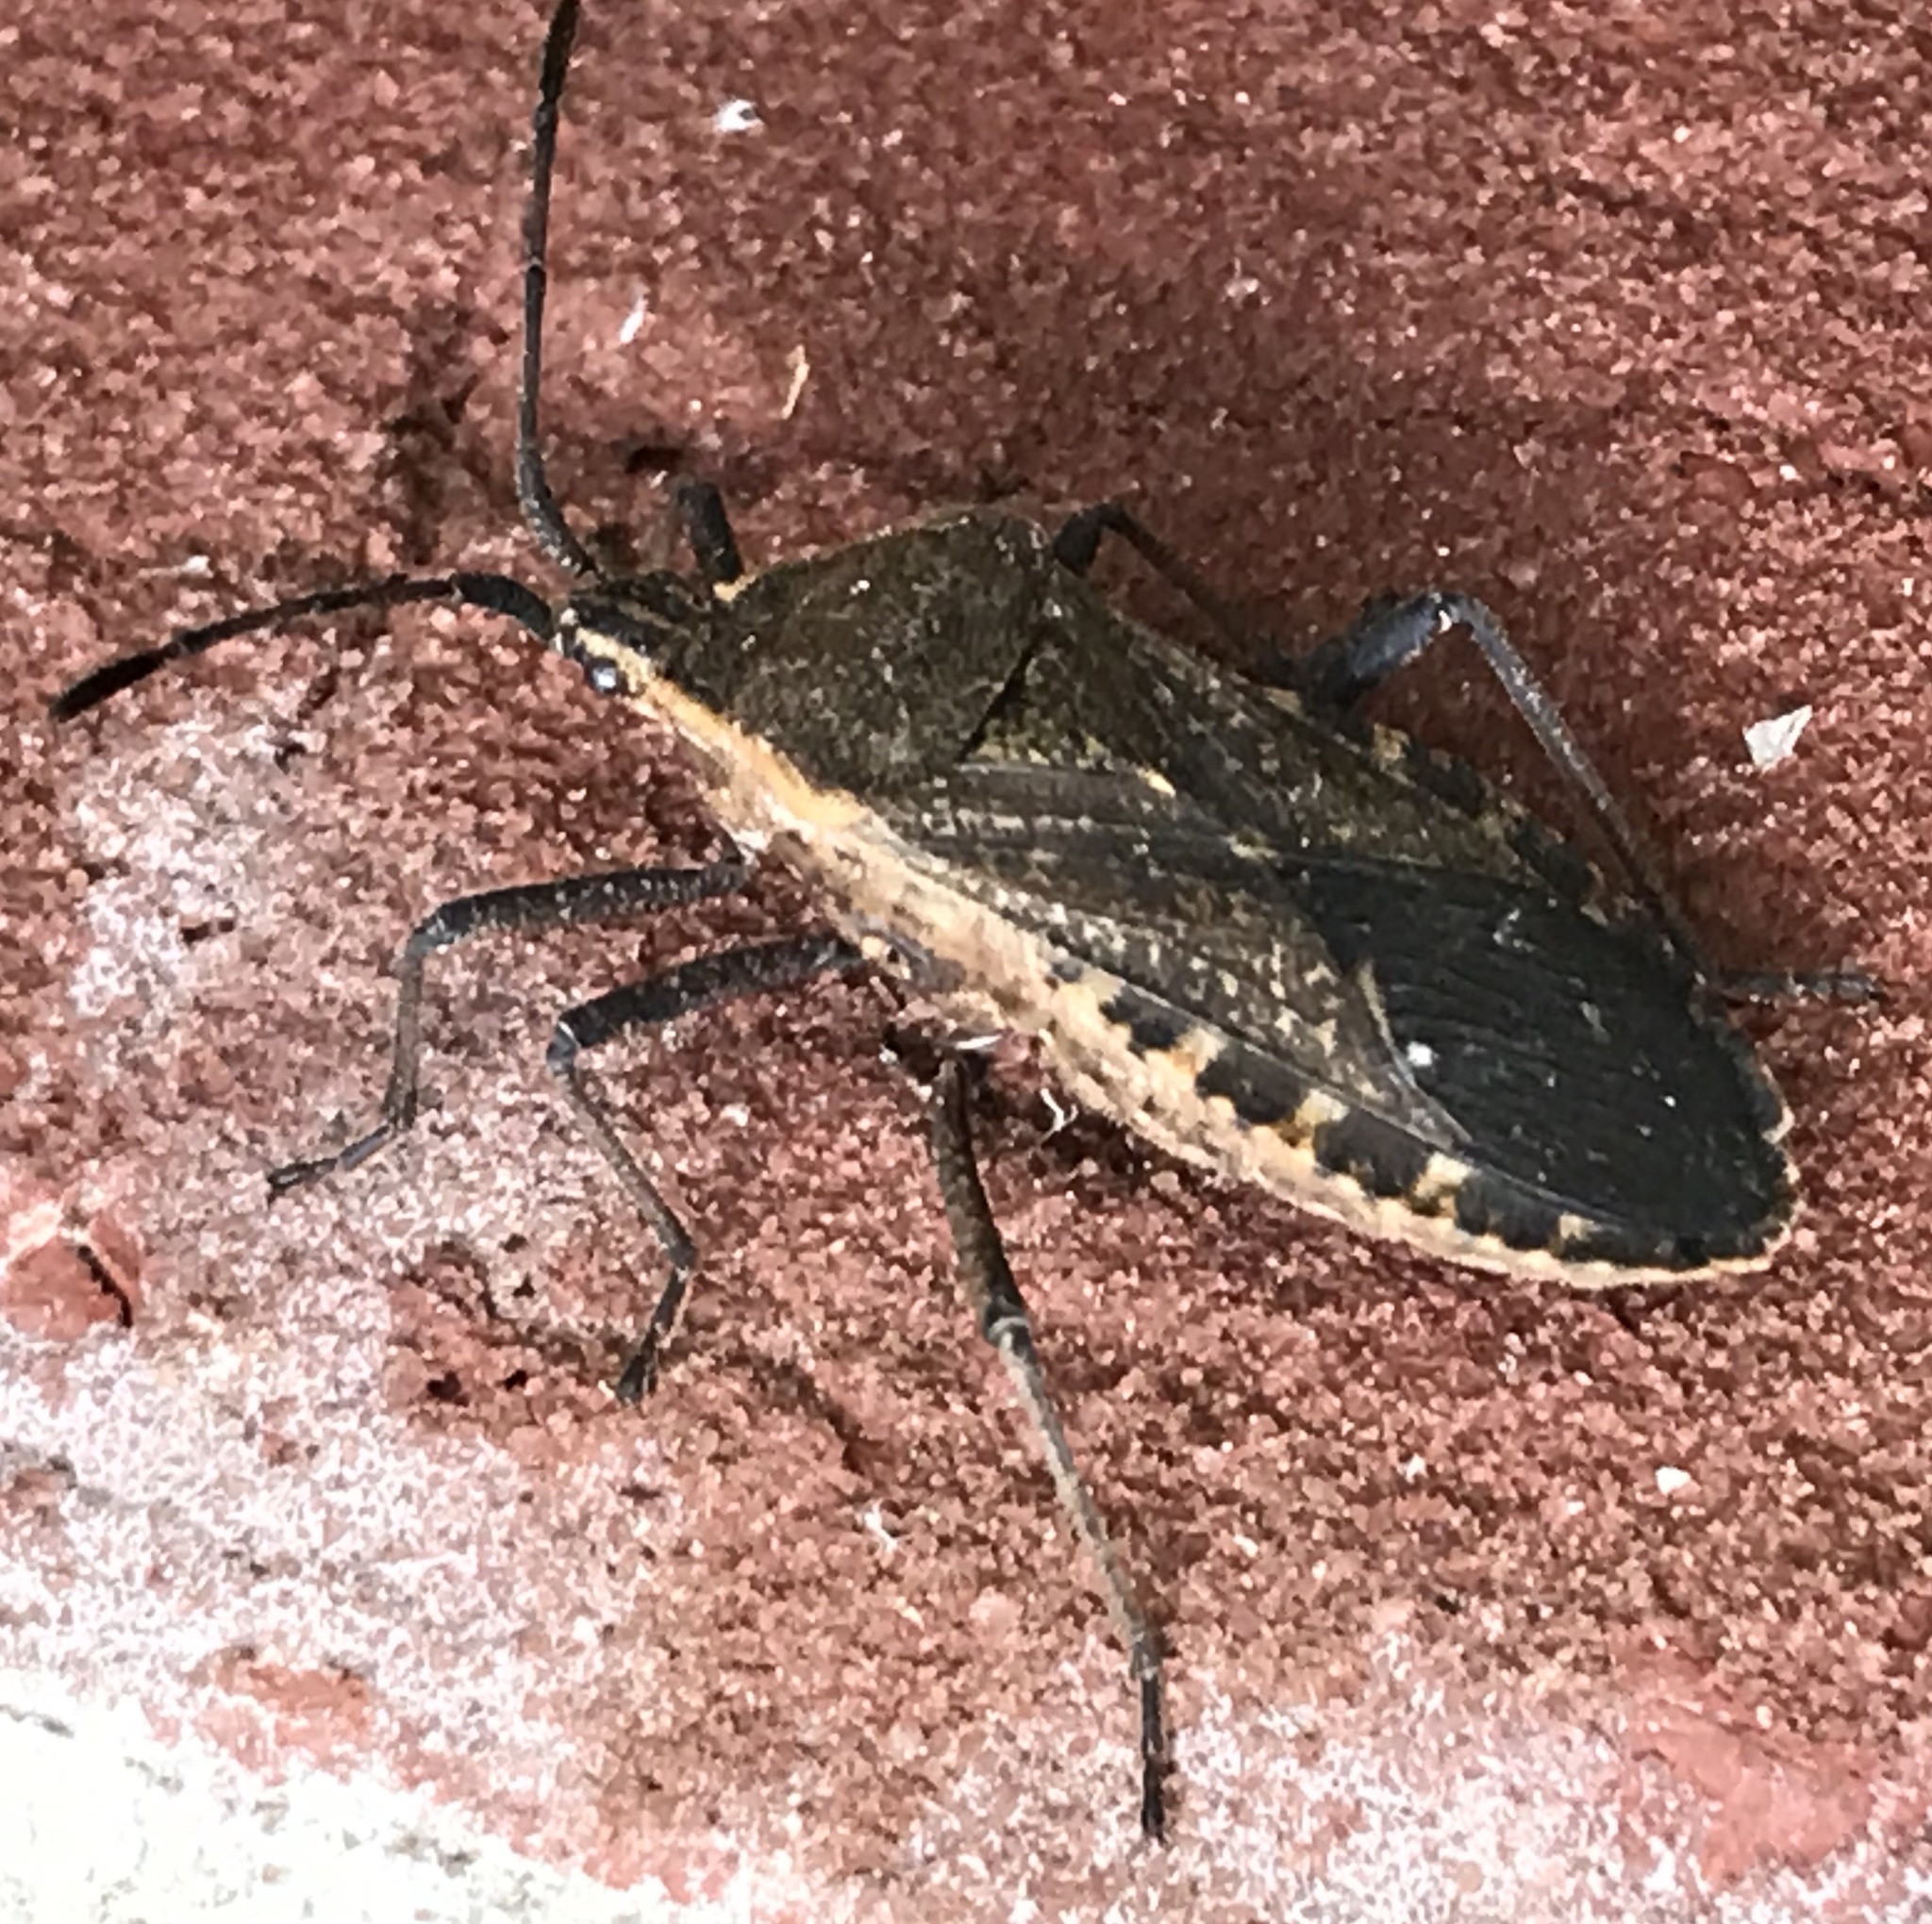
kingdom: Animalia
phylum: Arthropoda
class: Insecta
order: Hemiptera
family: Coreidae
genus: Anasa
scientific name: Anasa tristis
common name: Squash bug
